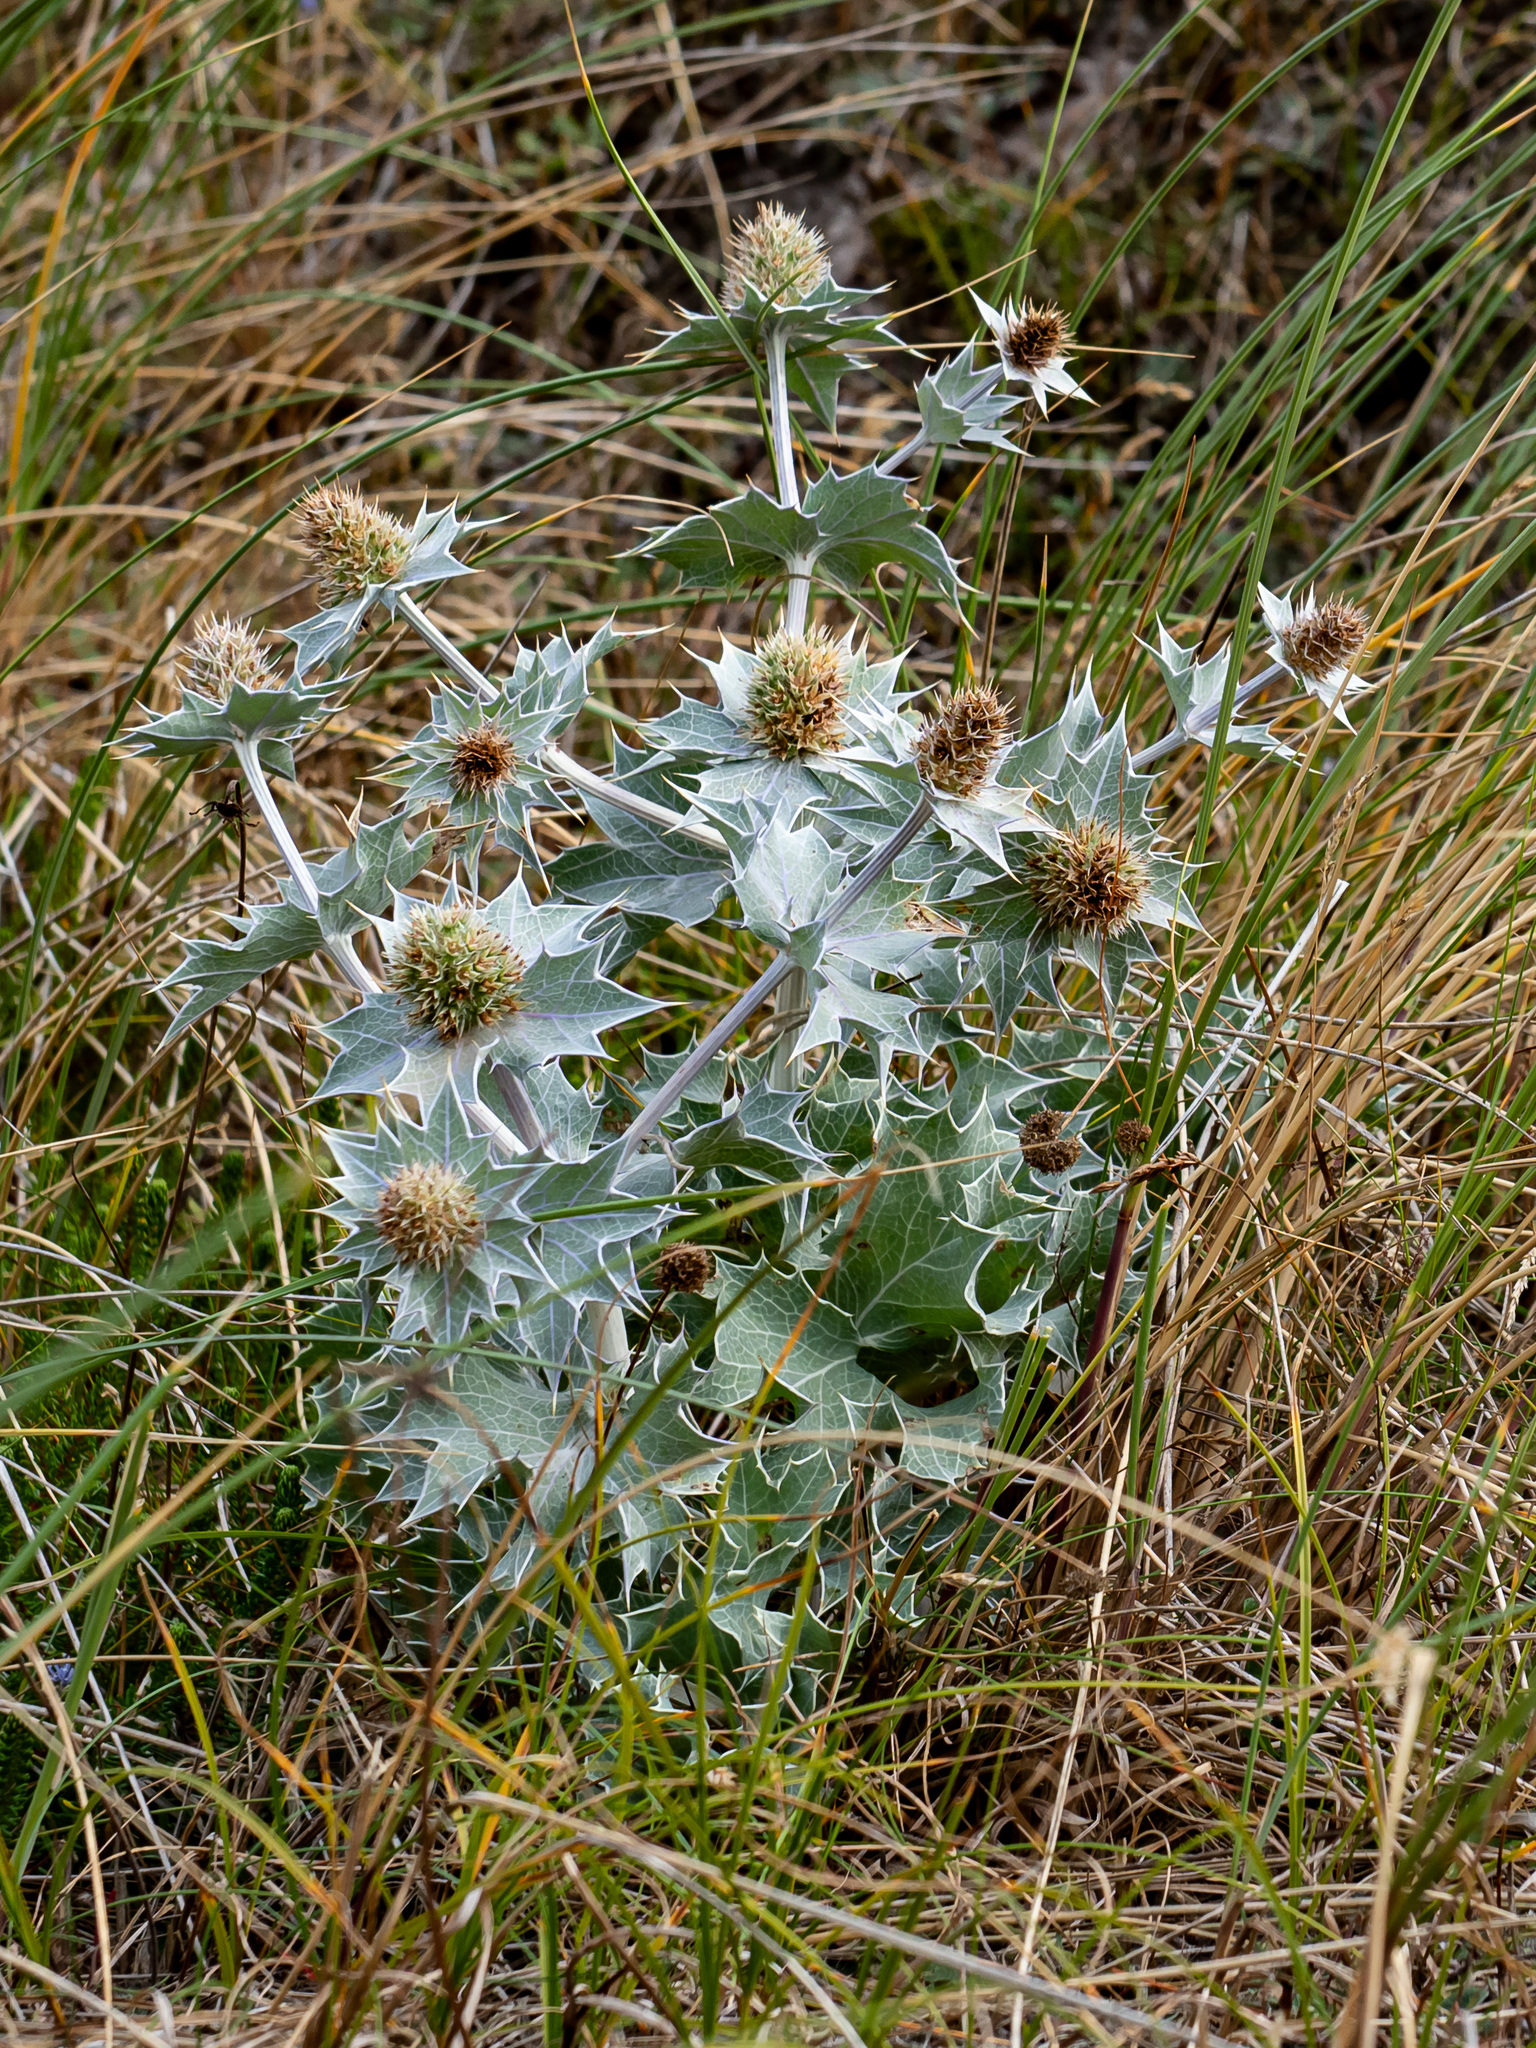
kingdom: Plantae
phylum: Tracheophyta
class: Magnoliopsida
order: Apiales
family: Apiaceae
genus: Eryngium
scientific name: Eryngium maritimum
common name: Sea-holly
